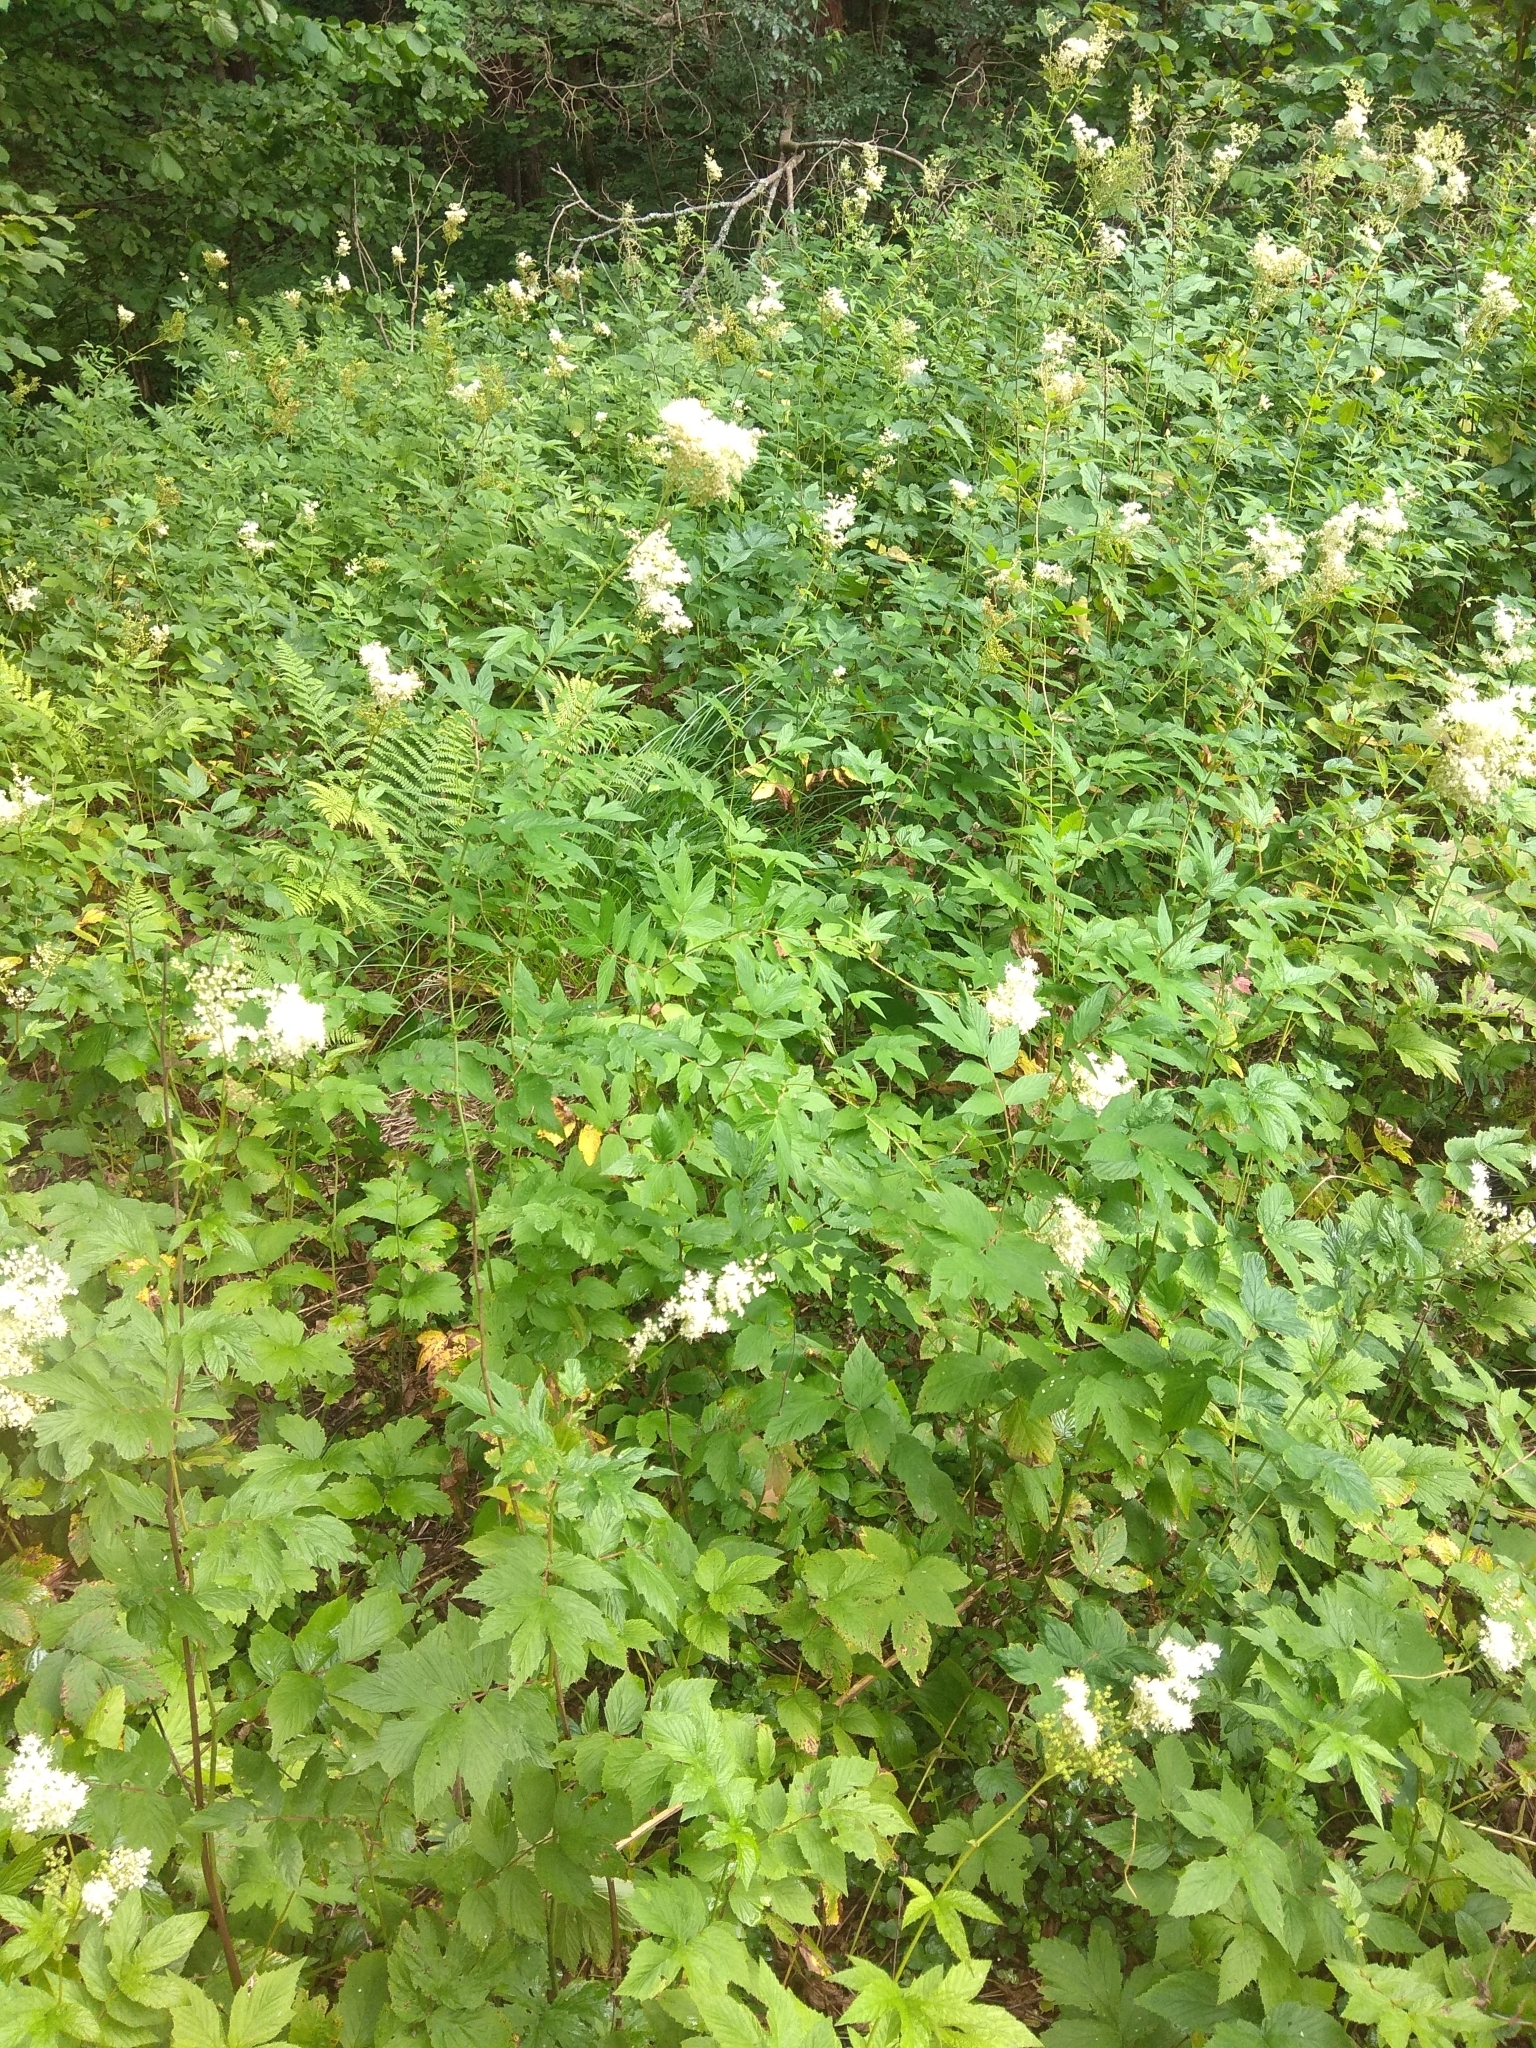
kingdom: Plantae
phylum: Tracheophyta
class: Magnoliopsida
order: Rosales
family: Rosaceae
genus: Filipendula
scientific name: Filipendula ulmaria
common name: Meadowsweet
